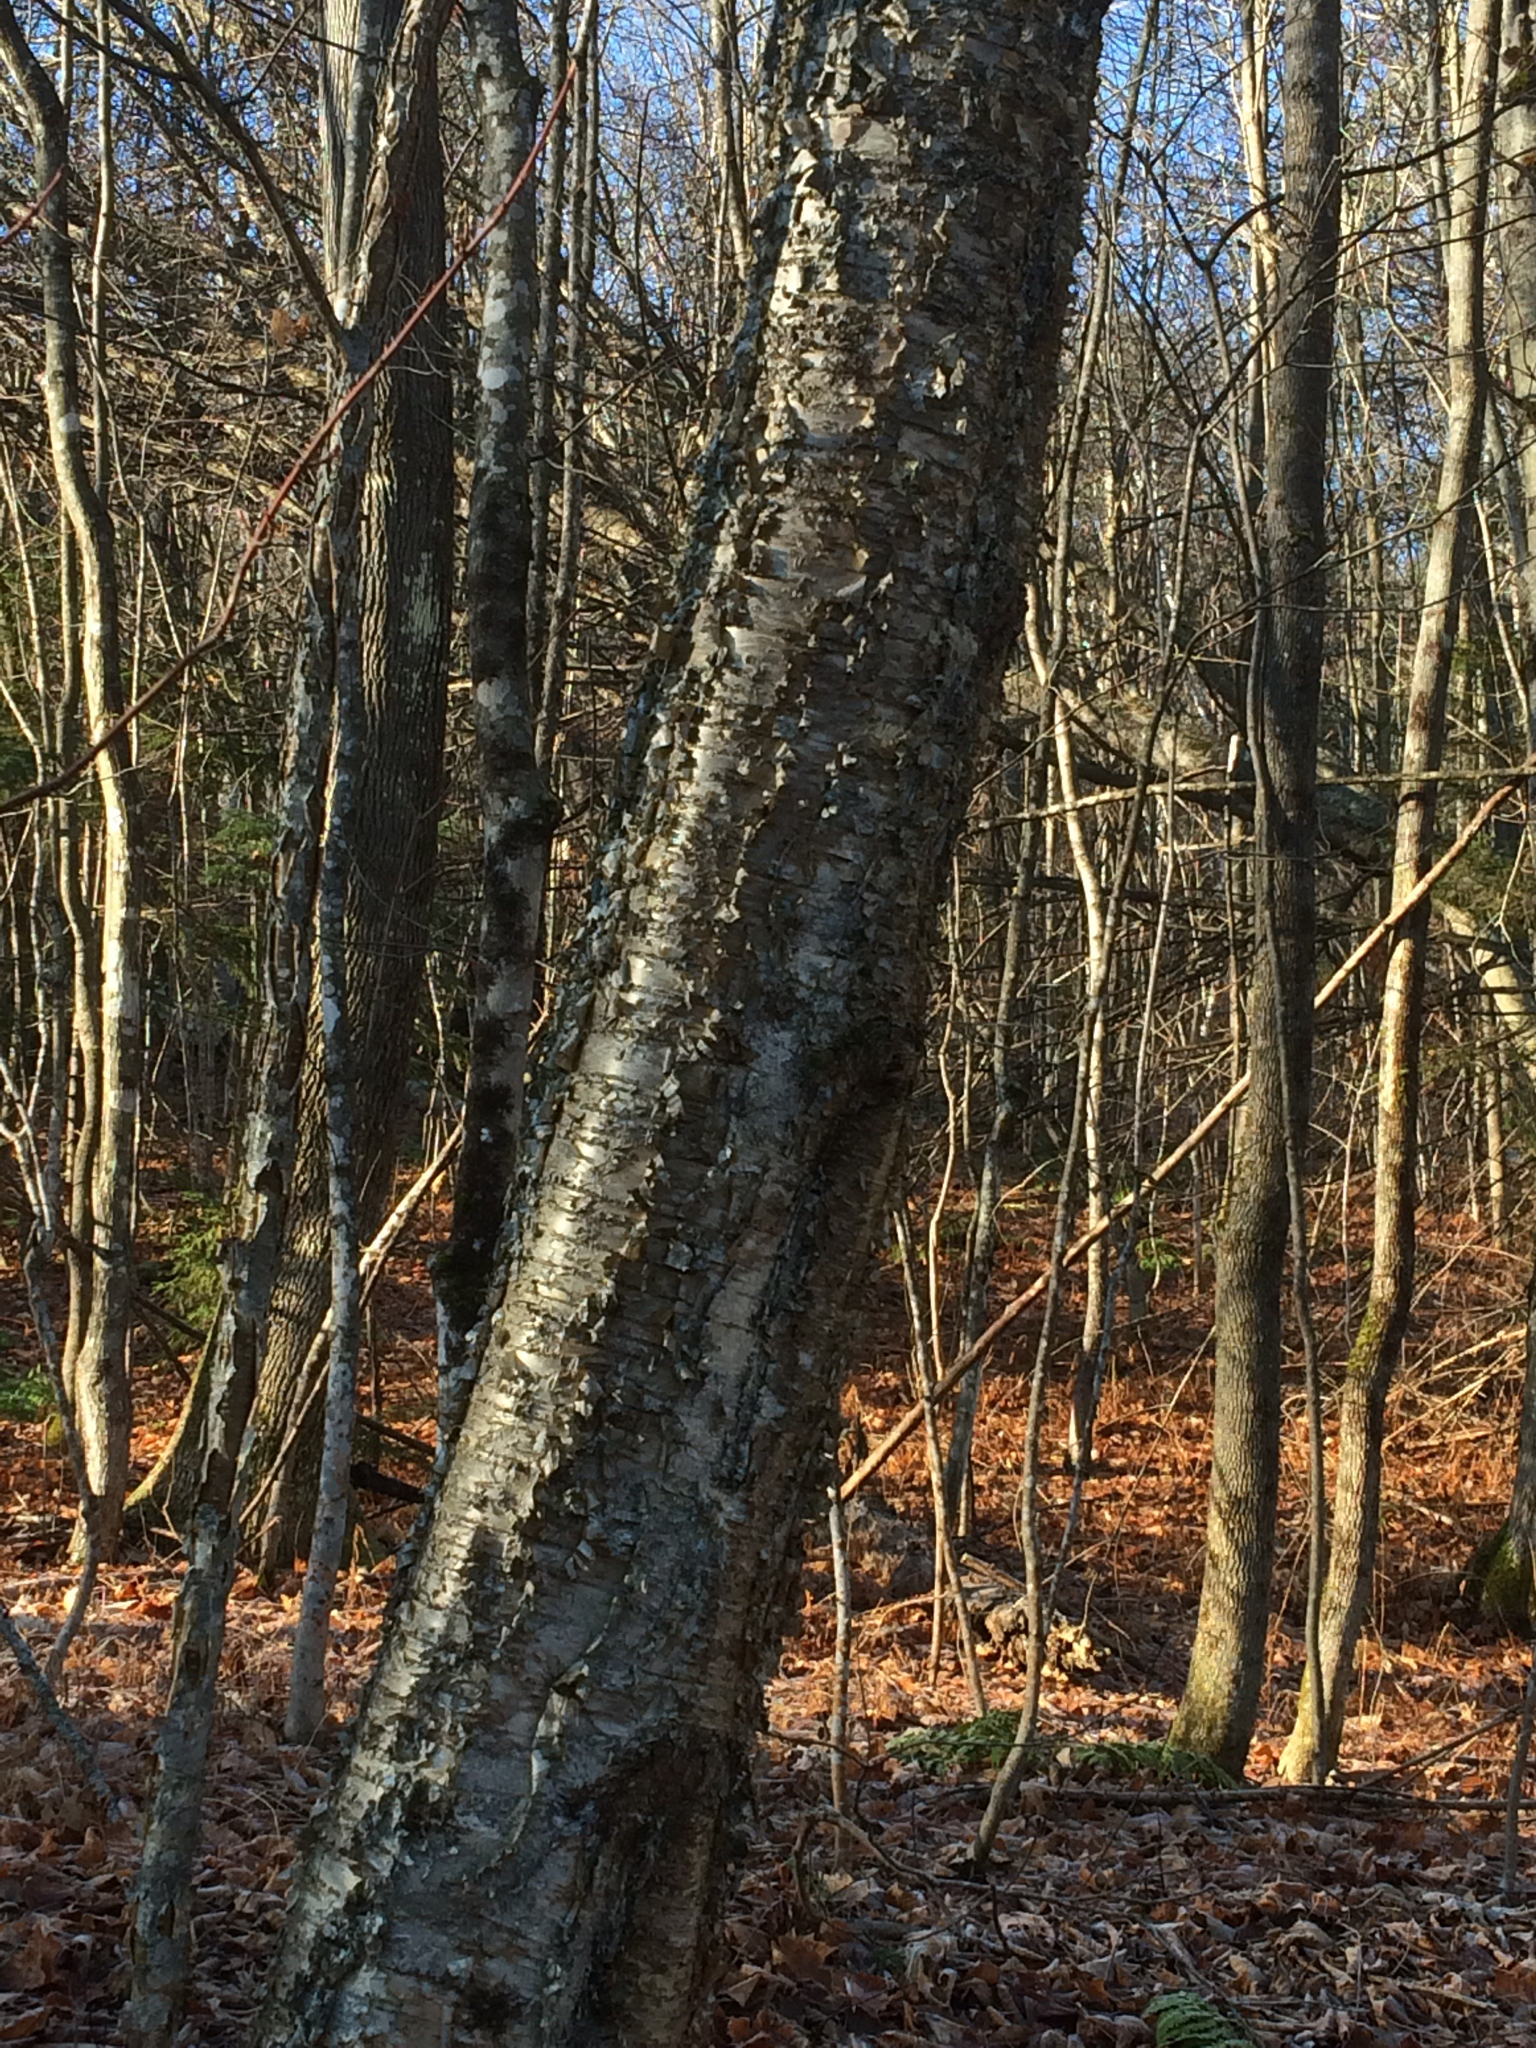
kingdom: Plantae
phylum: Tracheophyta
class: Magnoliopsida
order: Fagales
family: Betulaceae
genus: Betula
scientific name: Betula alleghaniensis
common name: Yellow birch
